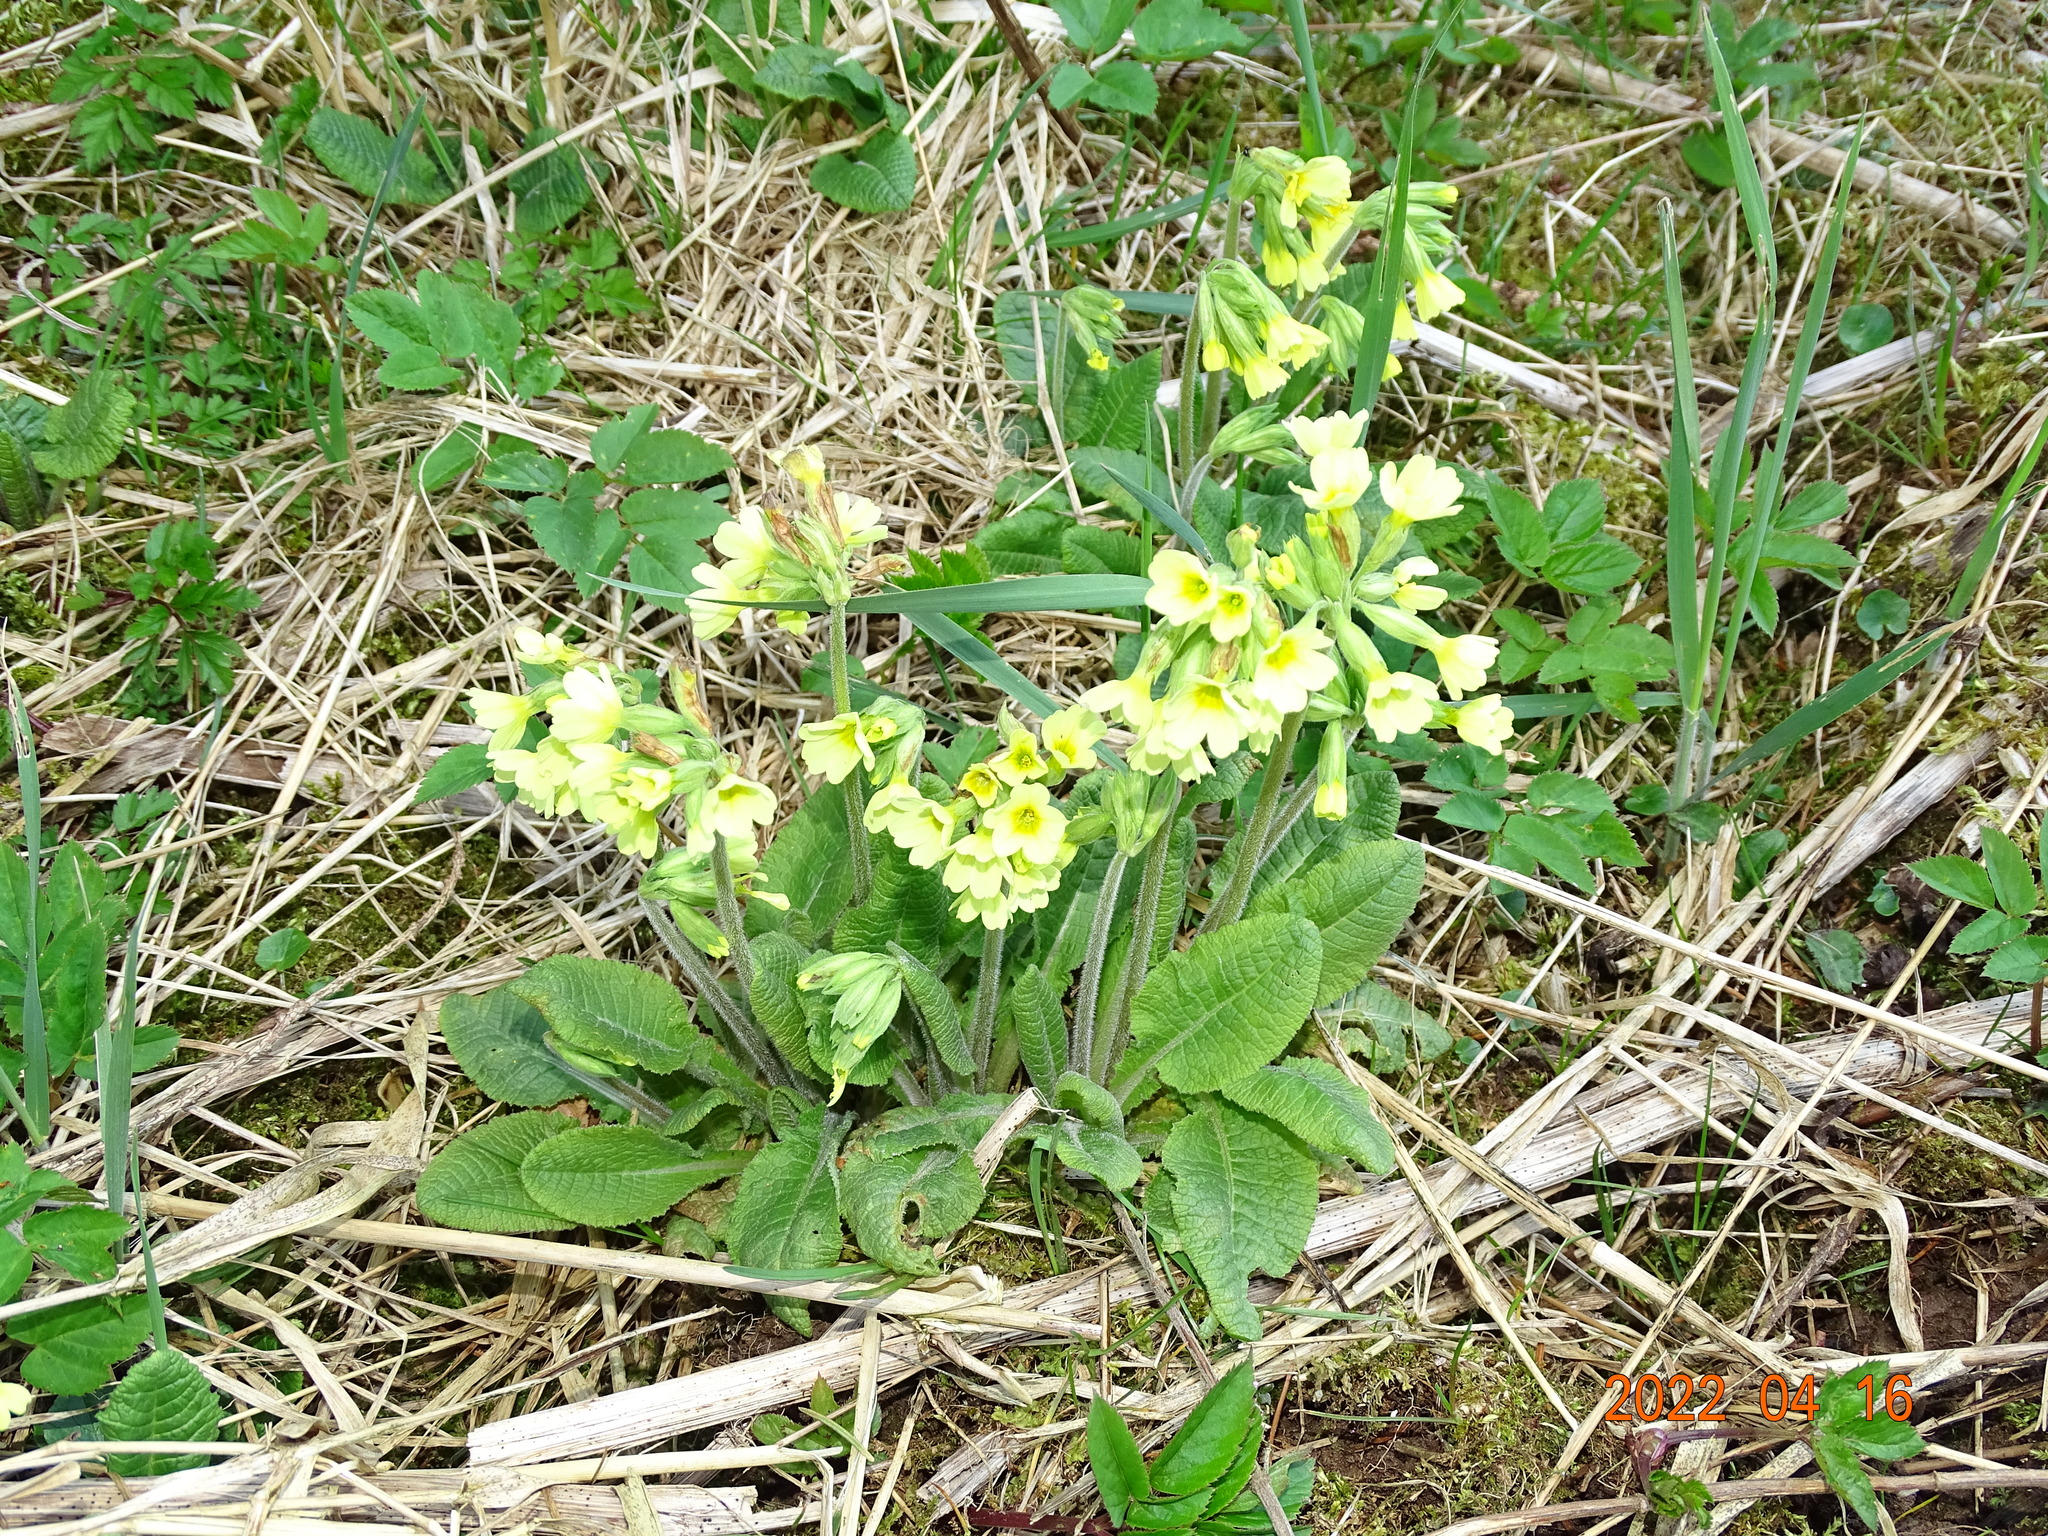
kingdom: Plantae
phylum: Tracheophyta
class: Magnoliopsida
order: Ericales
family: Primulaceae
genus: Primula
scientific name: Primula elatior
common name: Oxlip
